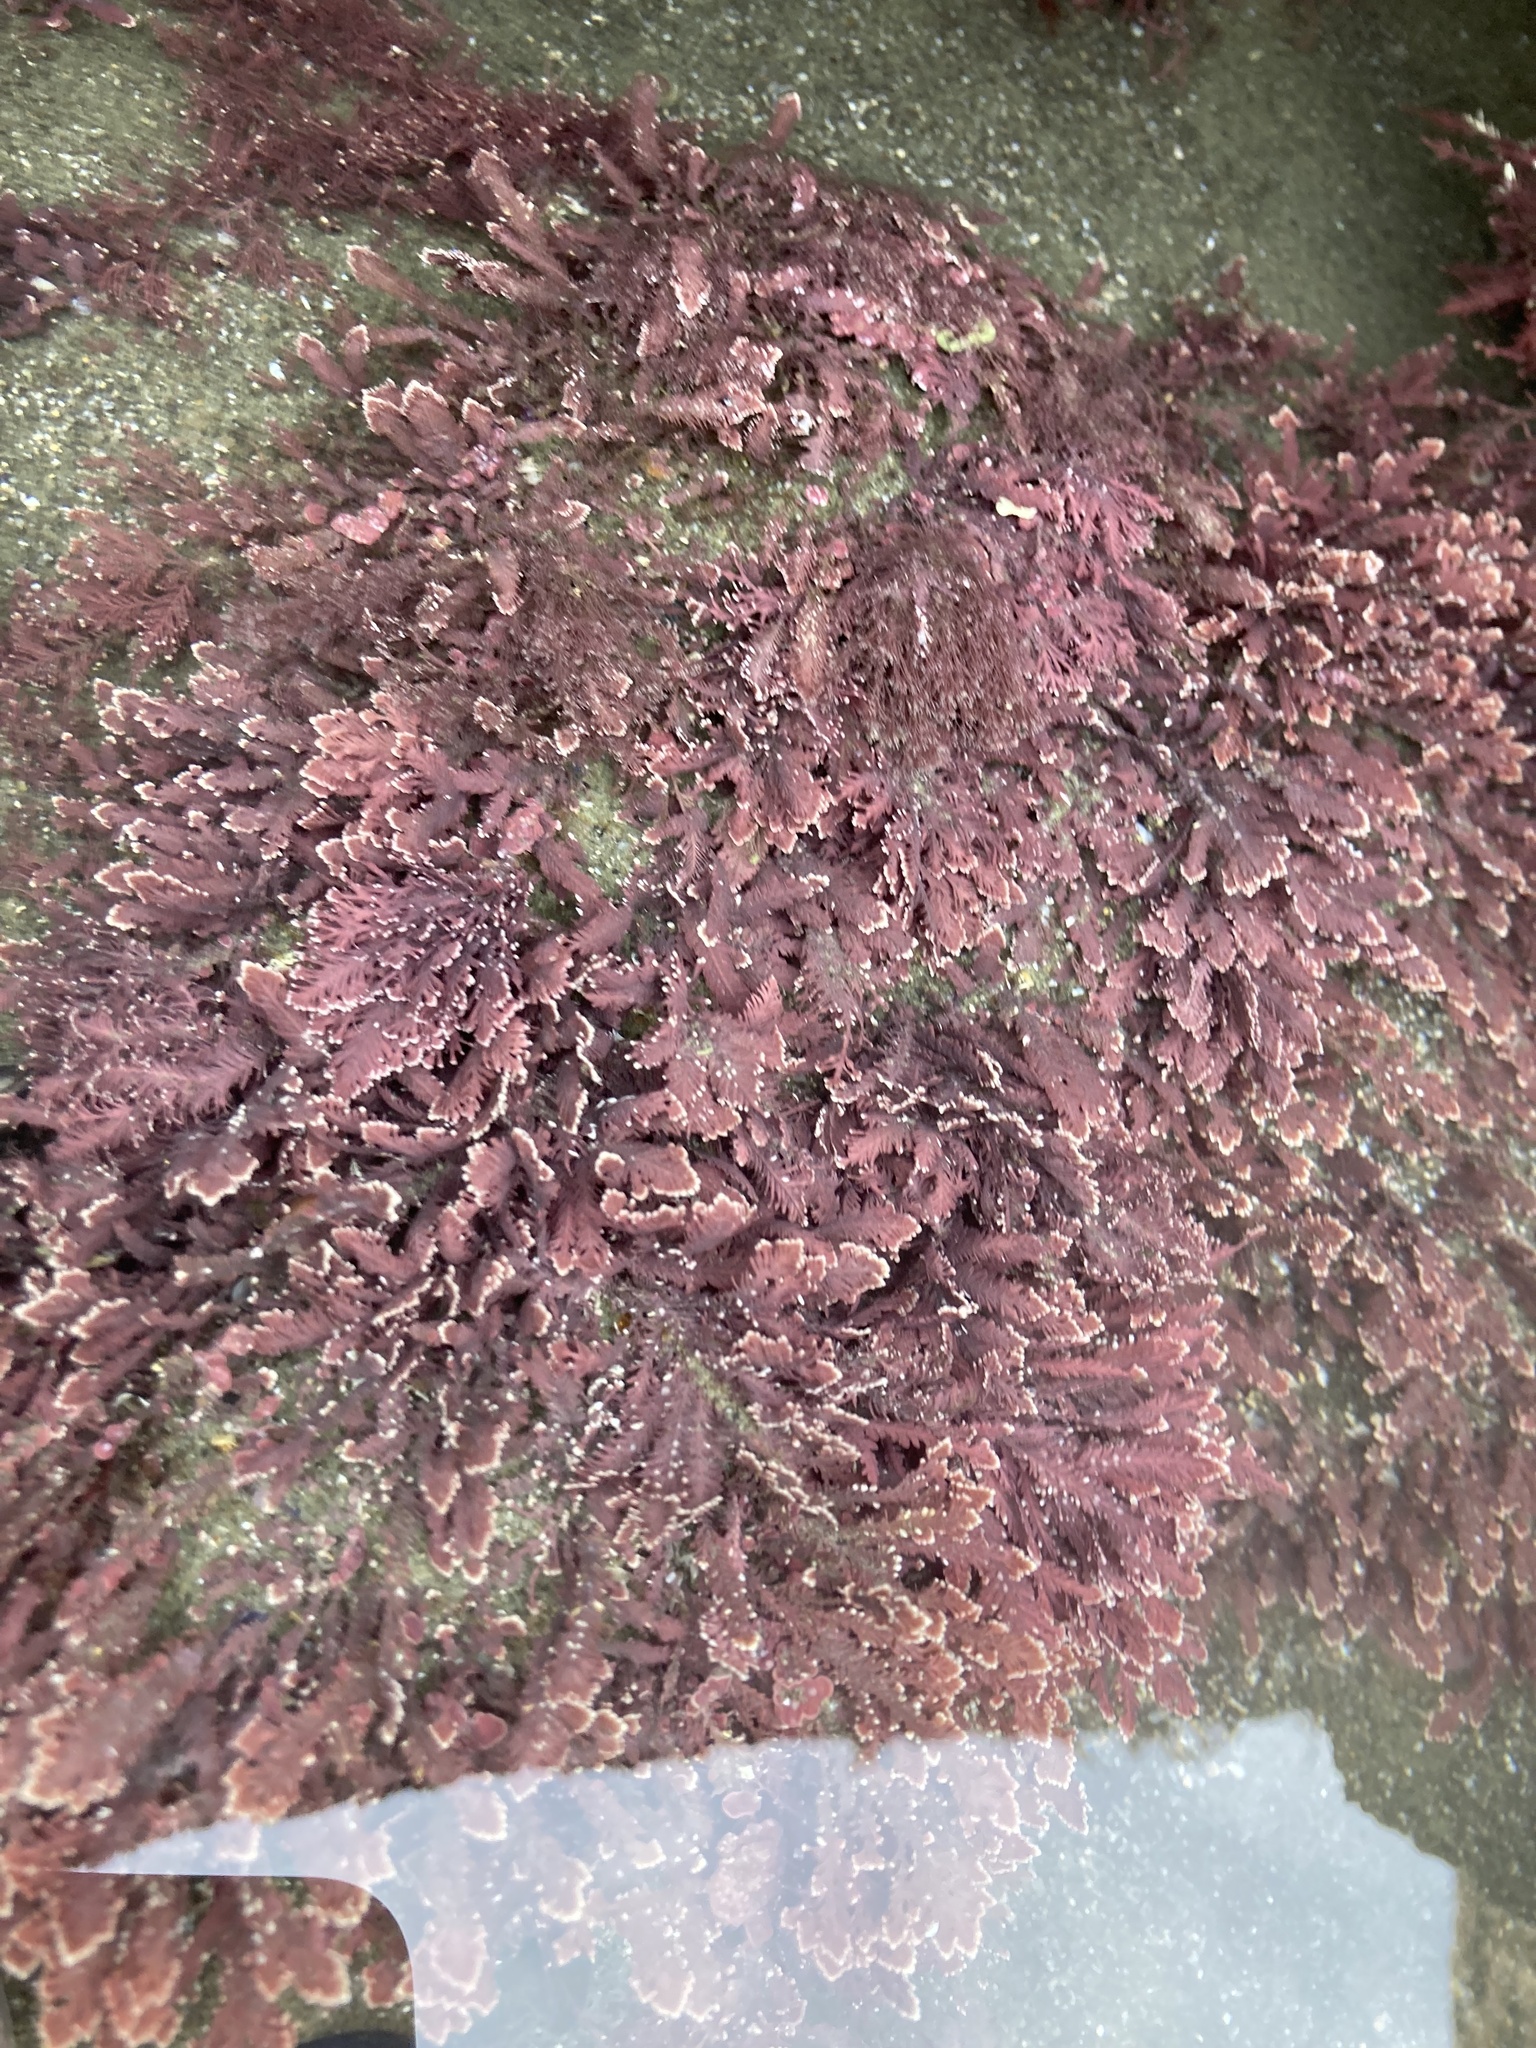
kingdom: Plantae
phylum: Rhodophyta
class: Florideophyceae
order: Corallinales
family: Corallinaceae
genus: Corallina
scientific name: Corallina officinalis
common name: Coral weed
